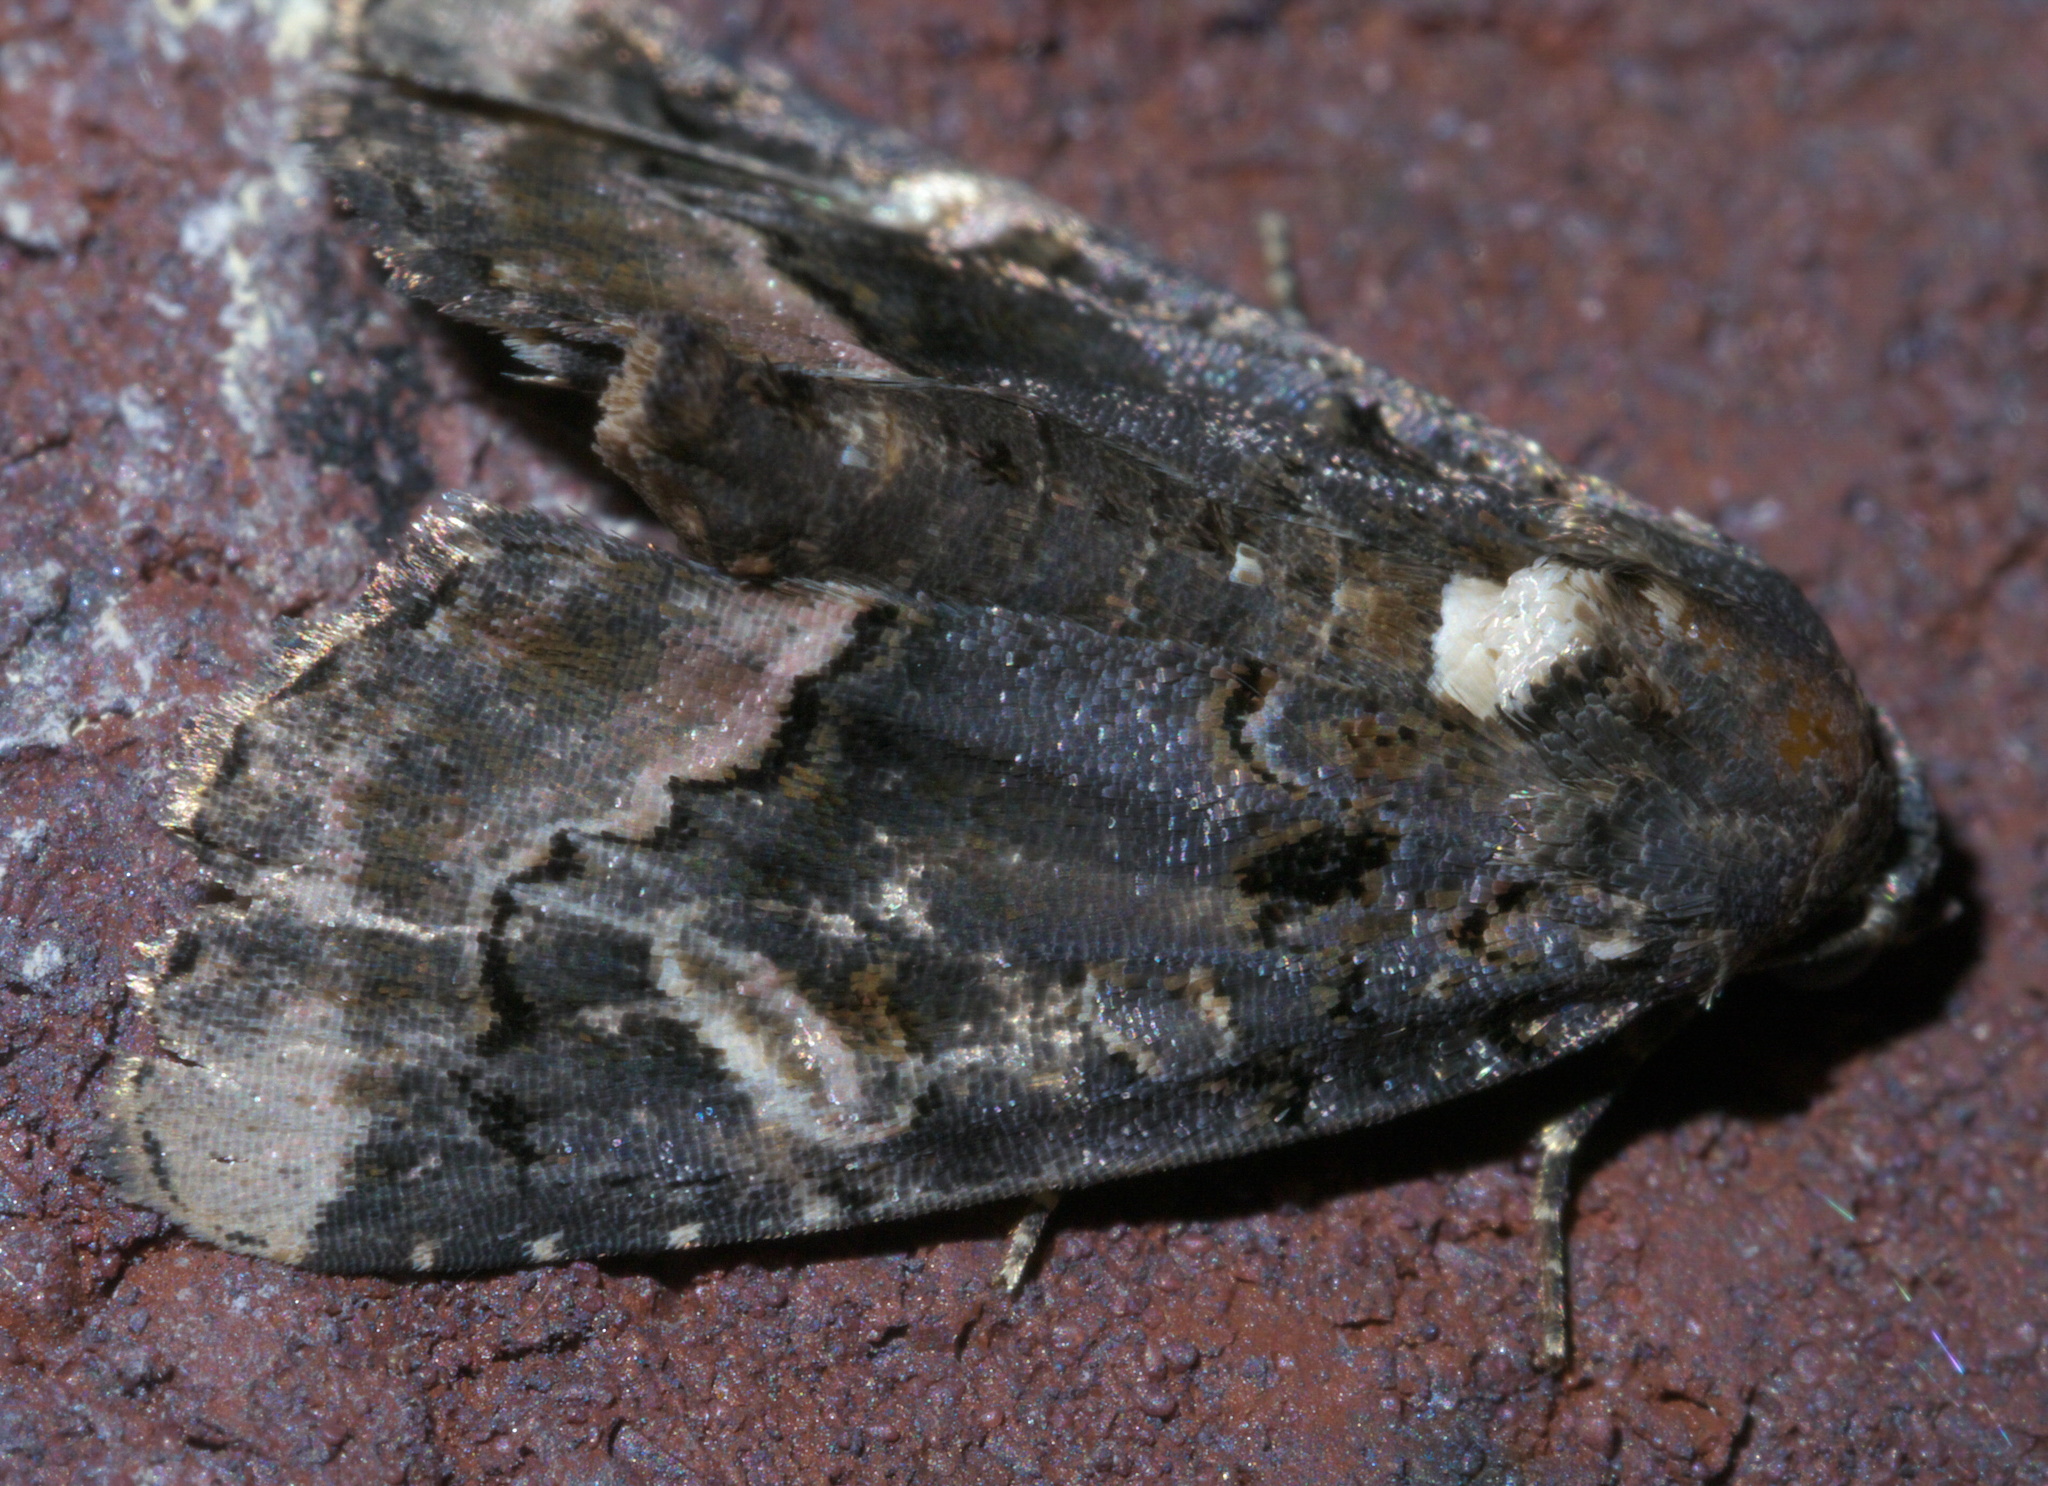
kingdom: Animalia
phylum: Arthropoda
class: Insecta
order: Lepidoptera
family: Noctuidae
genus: Homophoberia
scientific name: Homophoberia apicosa
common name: Black wedge-spot
